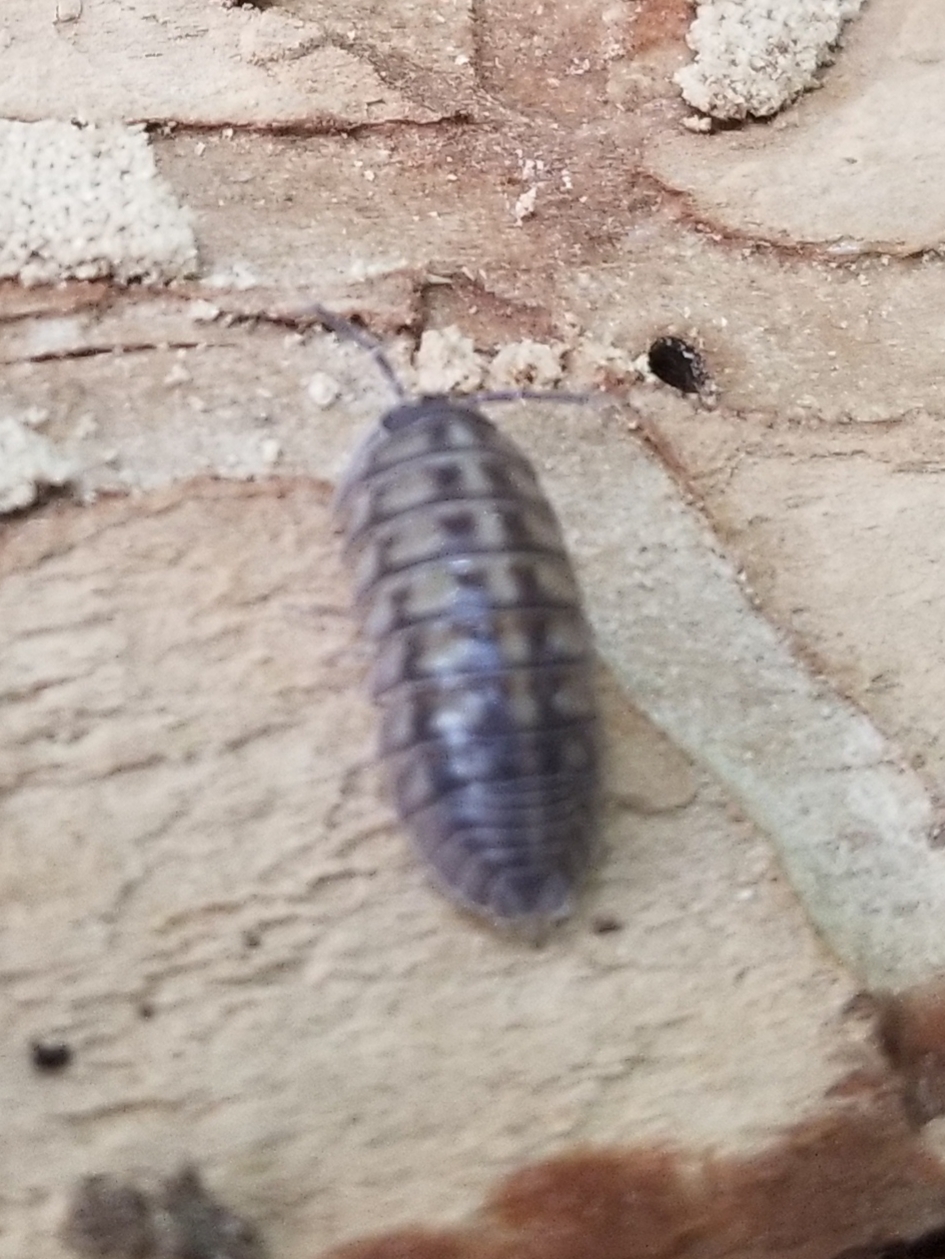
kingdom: Animalia
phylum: Arthropoda
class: Malacostraca
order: Isopoda
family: Armadillidiidae
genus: Armadillidium
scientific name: Armadillidium nasatum
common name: Isopod
